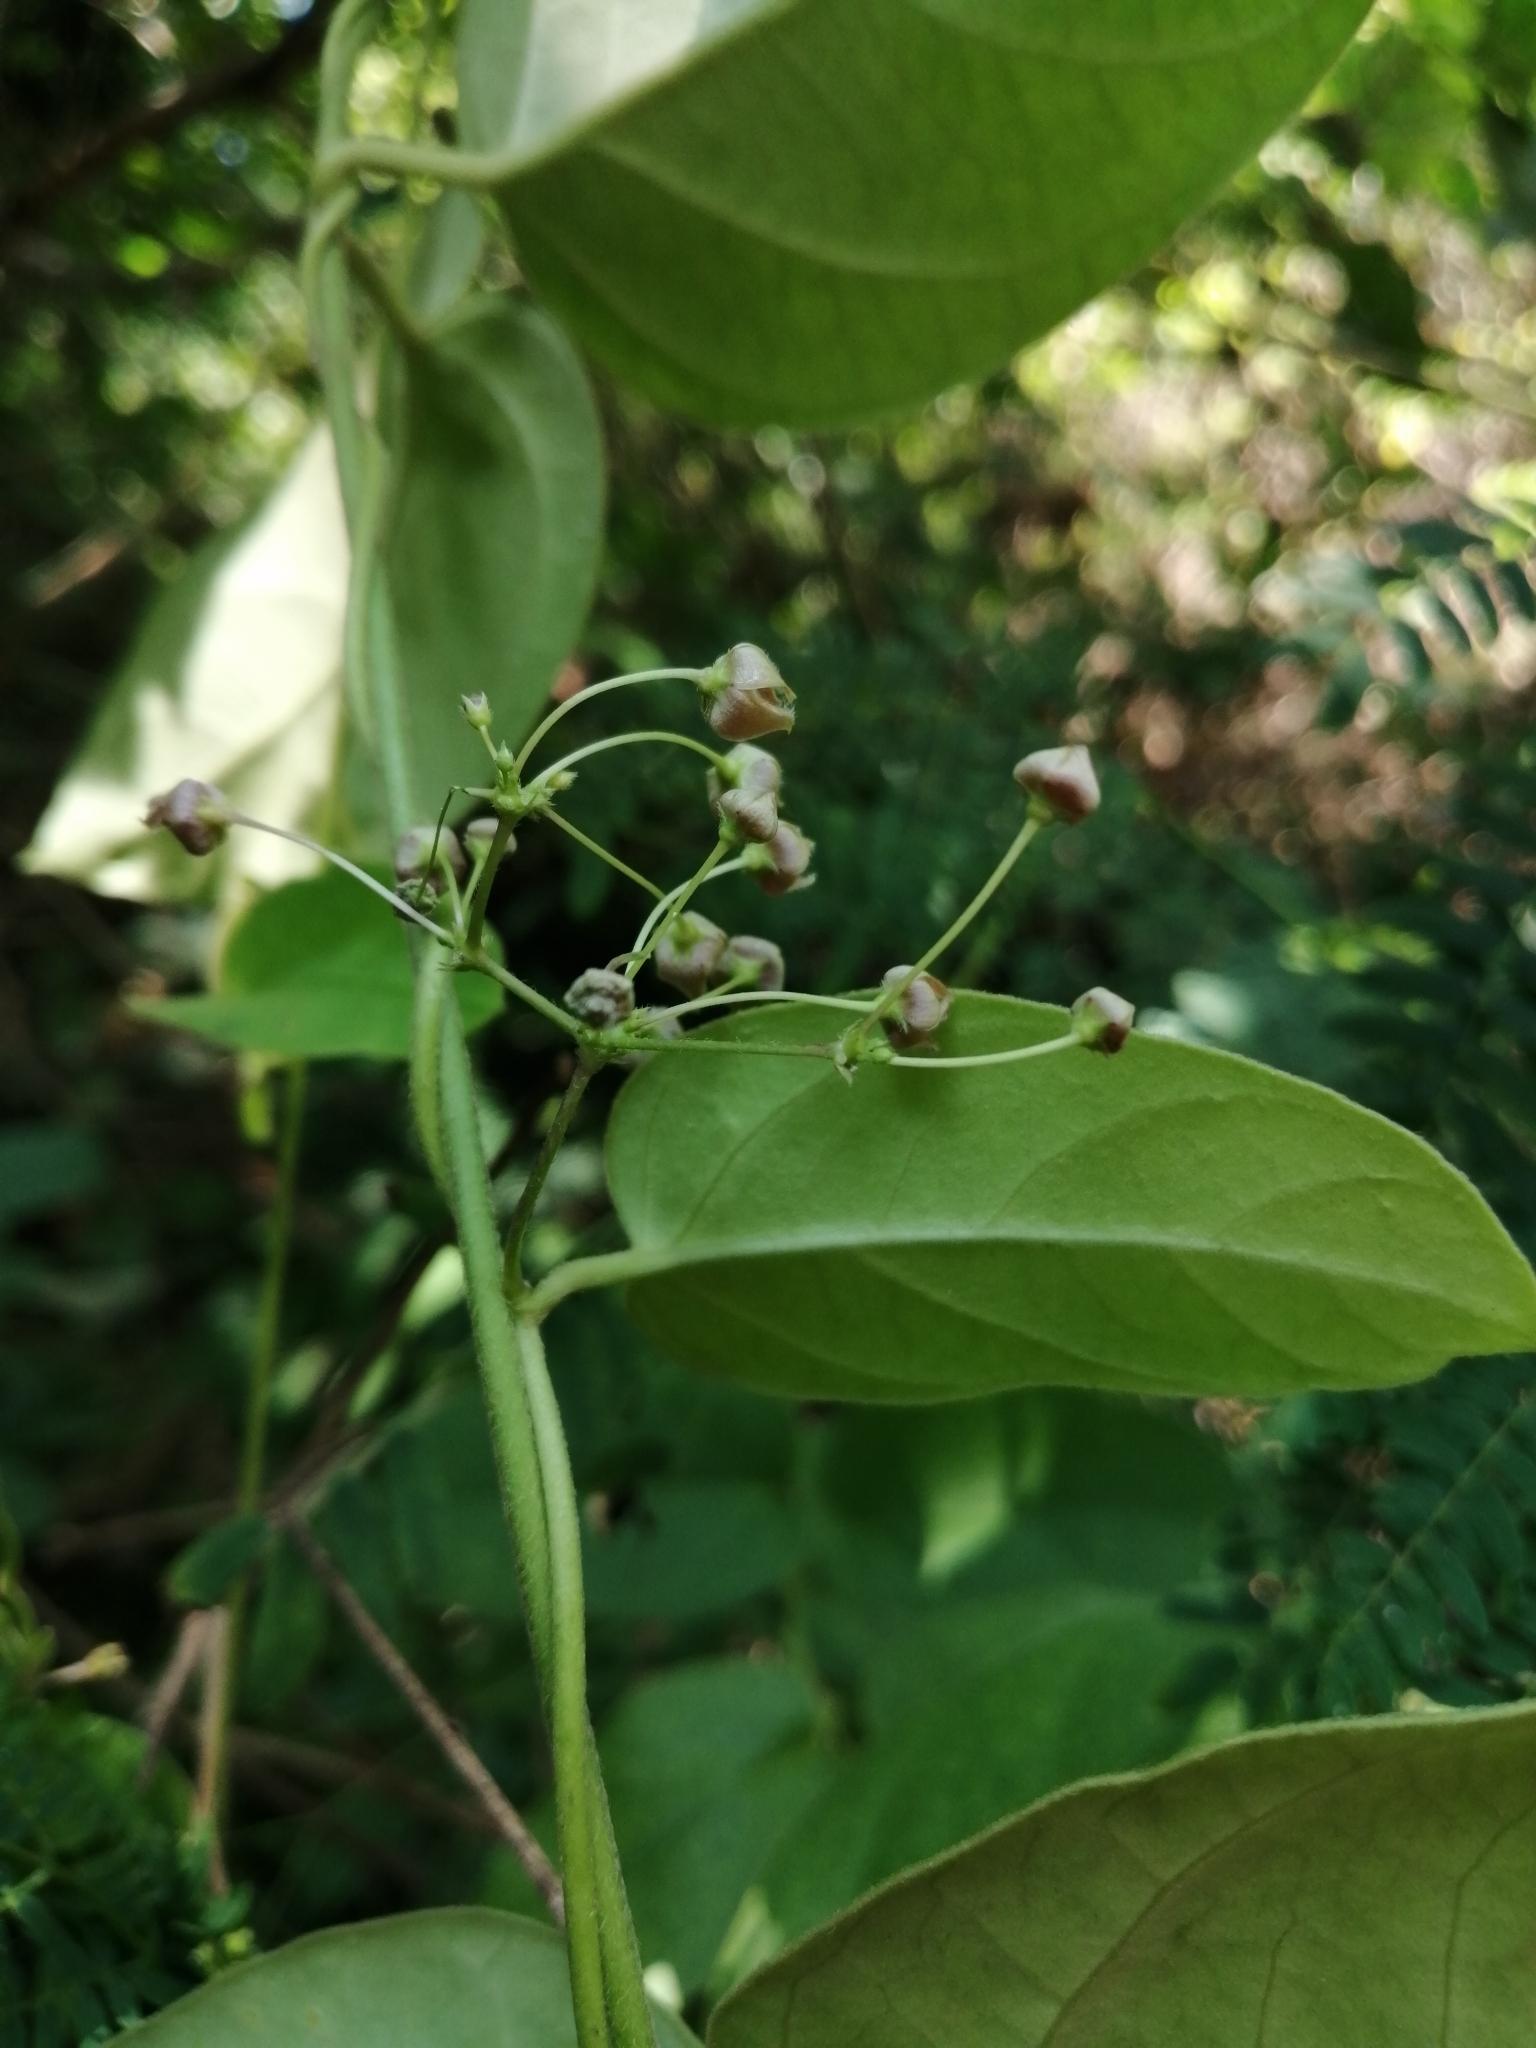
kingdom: Plantae
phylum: Tracheophyta
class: Magnoliopsida
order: Gentianales
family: Apocynaceae
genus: Vincetoxicum
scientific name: Vincetoxicum hirsutum
